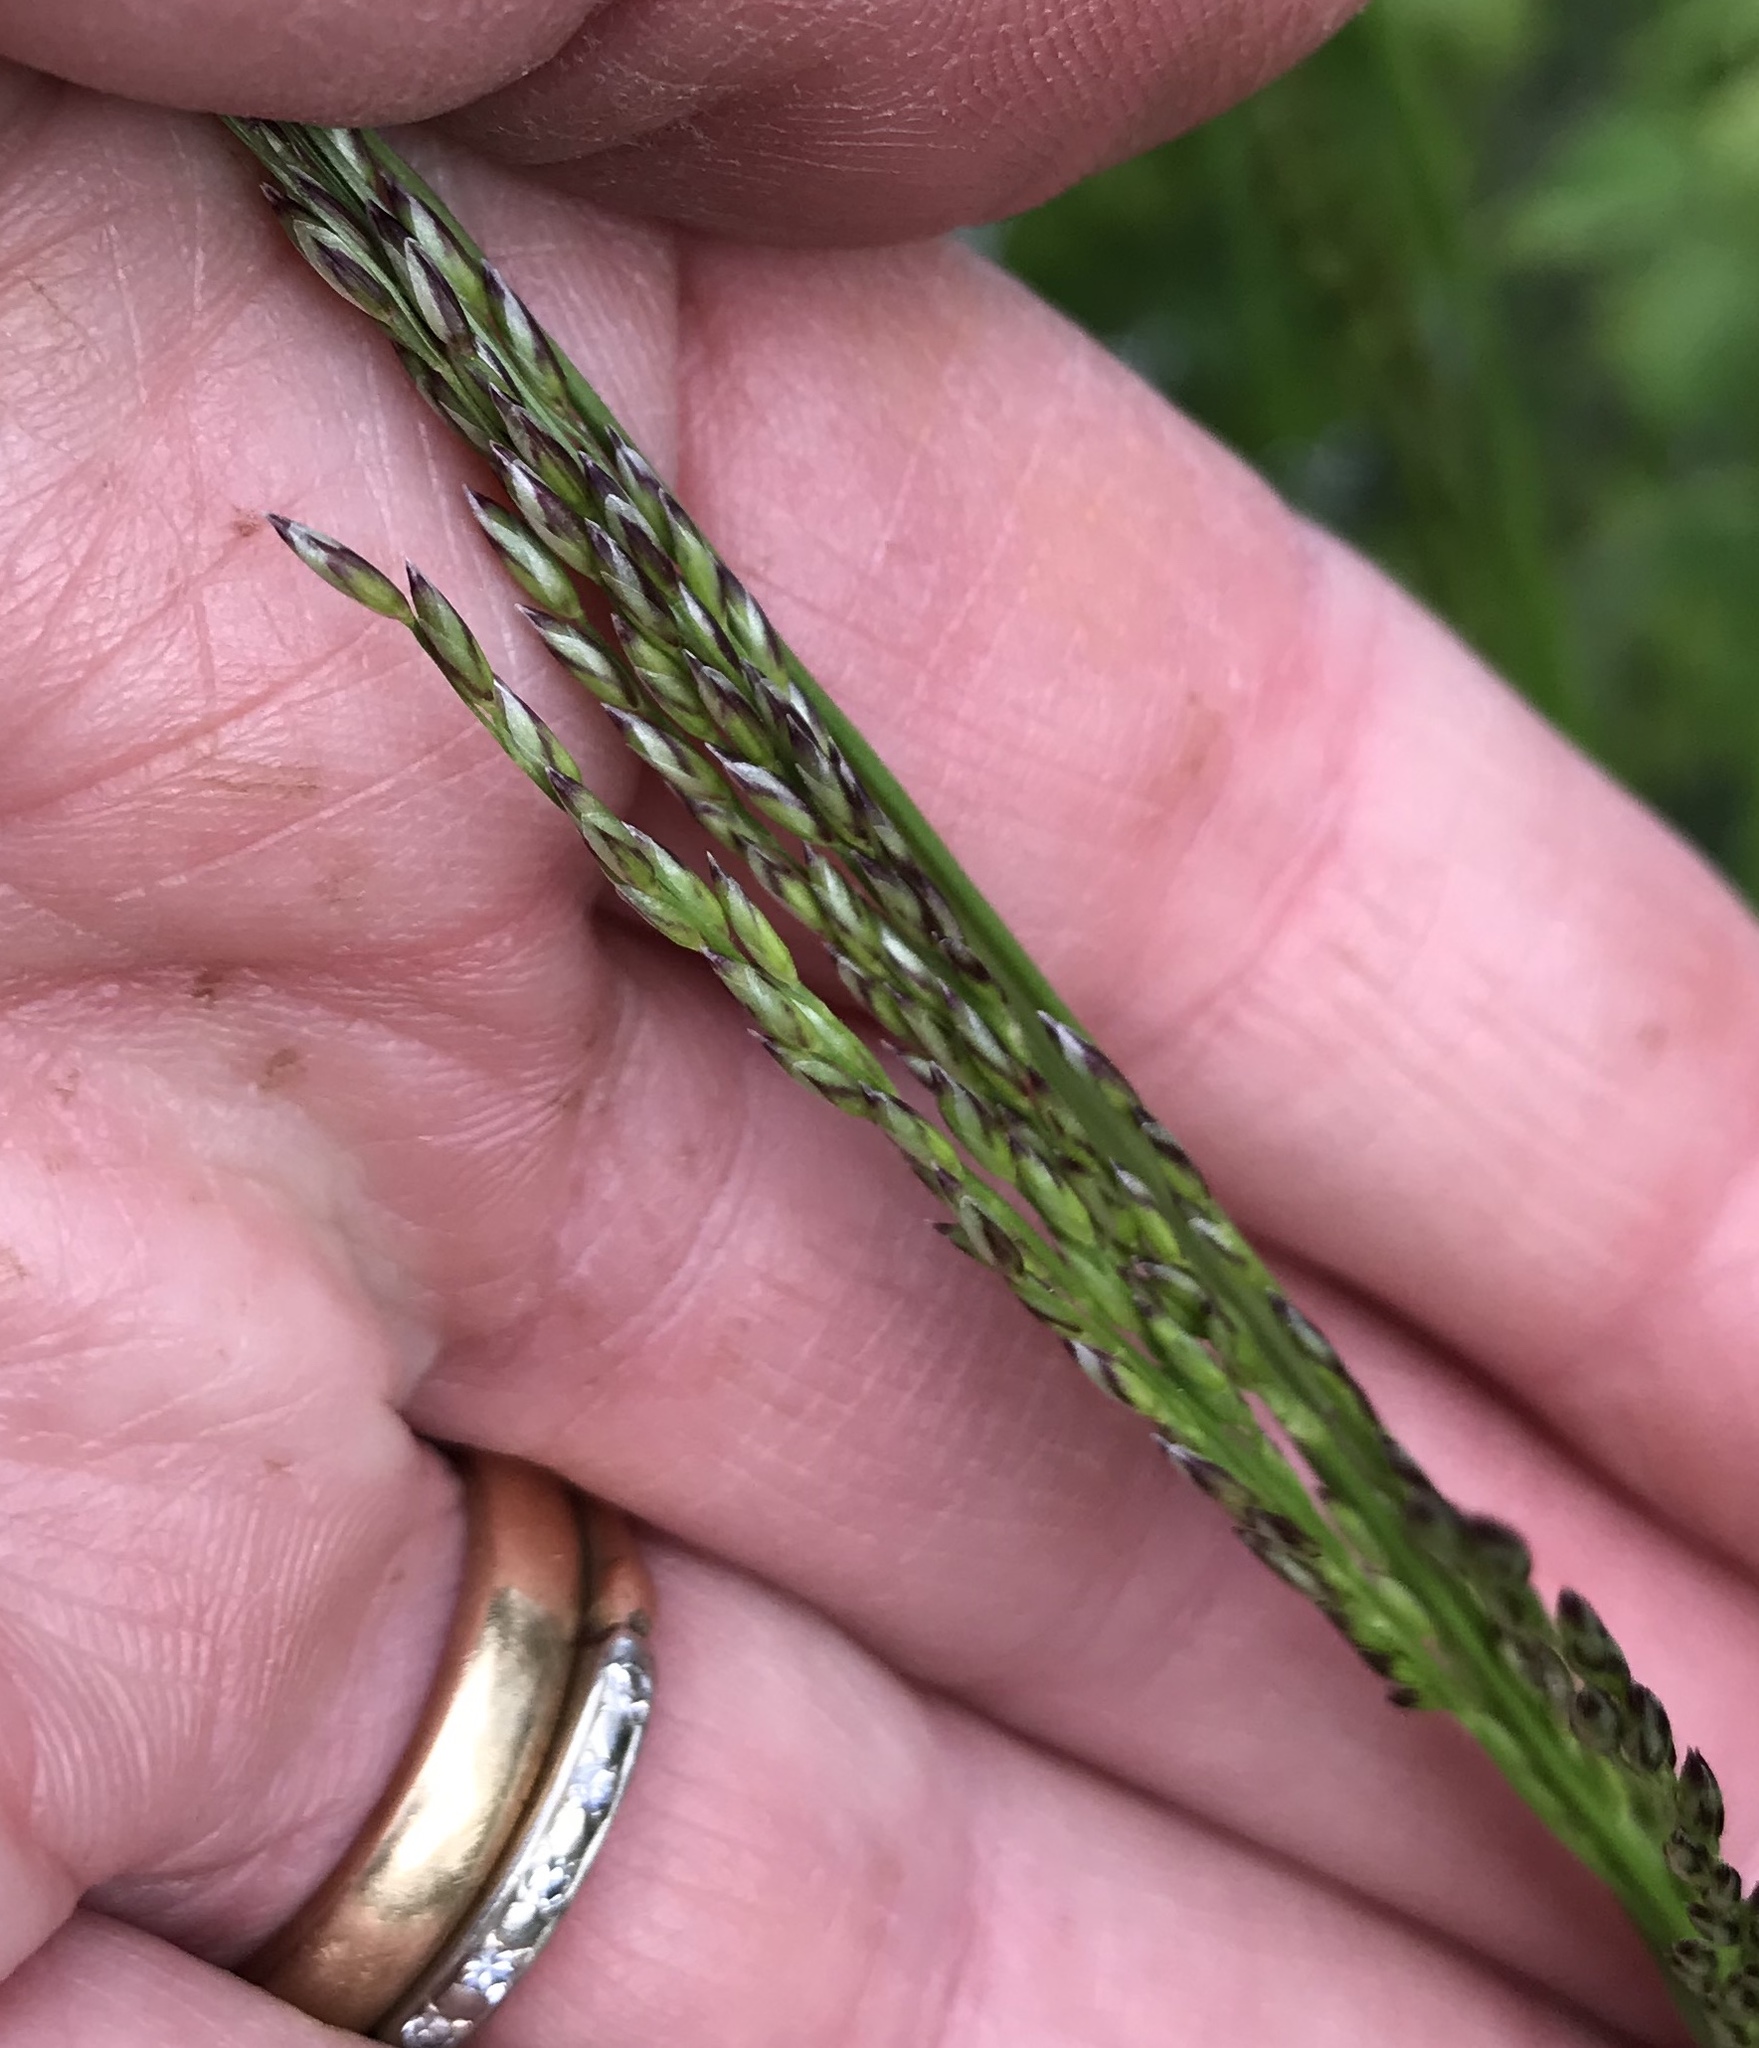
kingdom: Plantae
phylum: Tracheophyta
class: Liliopsida
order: Poales
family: Poaceae
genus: Melica
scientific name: Melica imperfecta
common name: California melic
